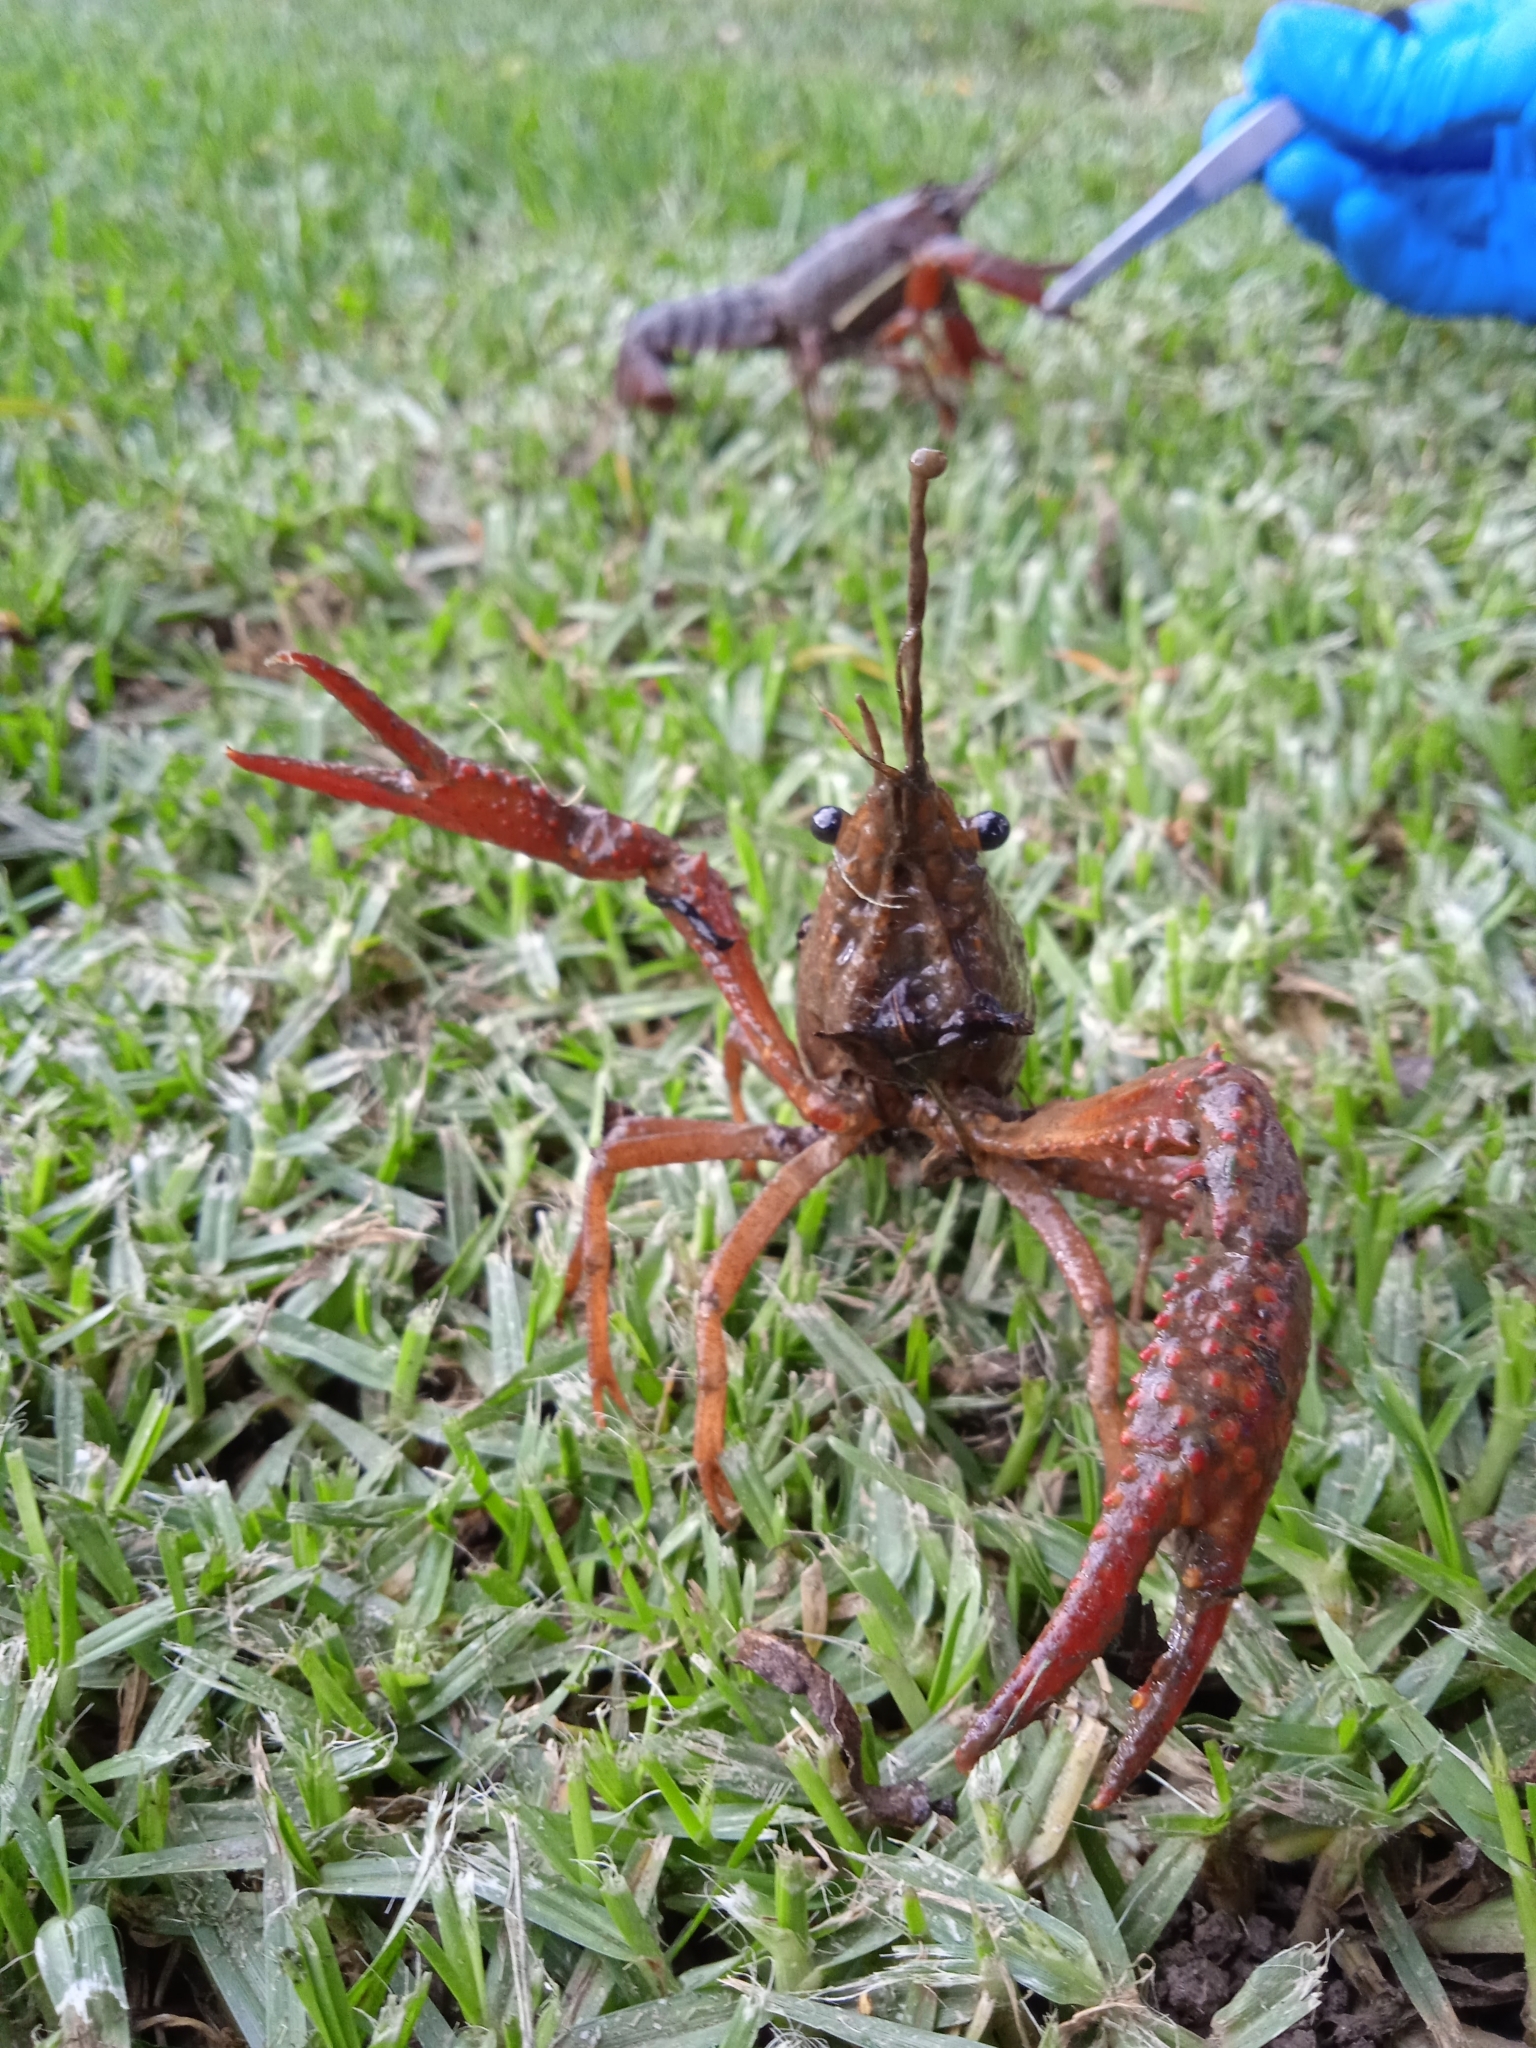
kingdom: Animalia
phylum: Arthropoda
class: Malacostraca
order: Decapoda
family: Cambaridae
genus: Procambarus
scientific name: Procambarus clarkii
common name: Red swamp crayfish
